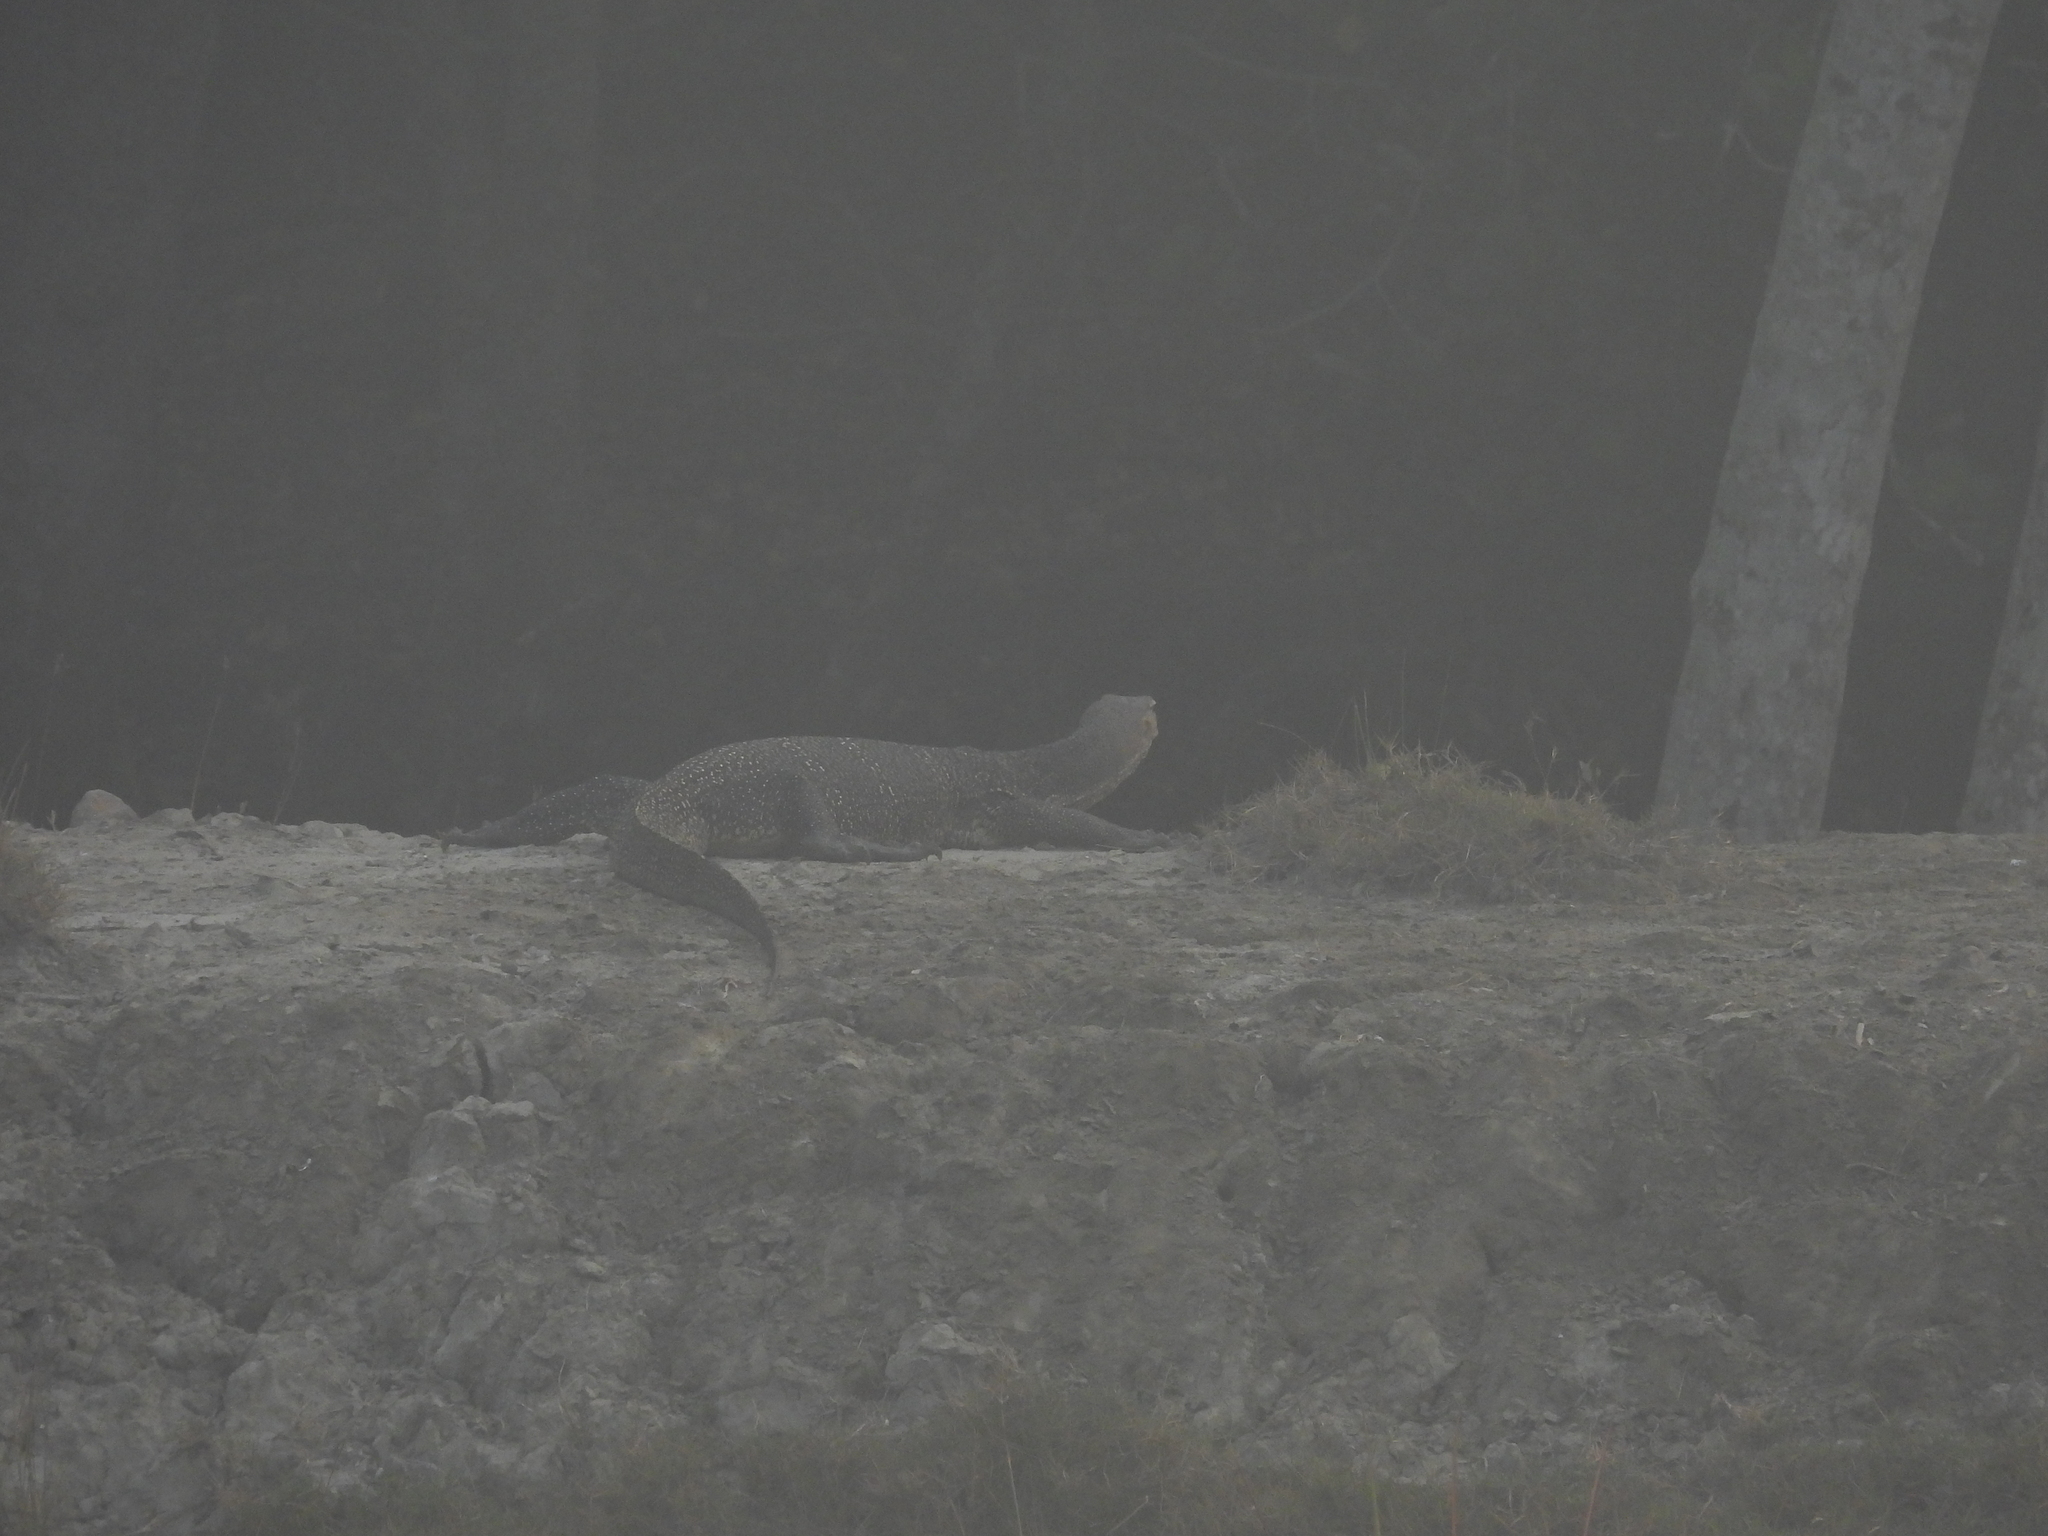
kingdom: Animalia
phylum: Chordata
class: Squamata
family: Varanidae
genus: Varanus
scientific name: Varanus salvator
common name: Common water monitor
